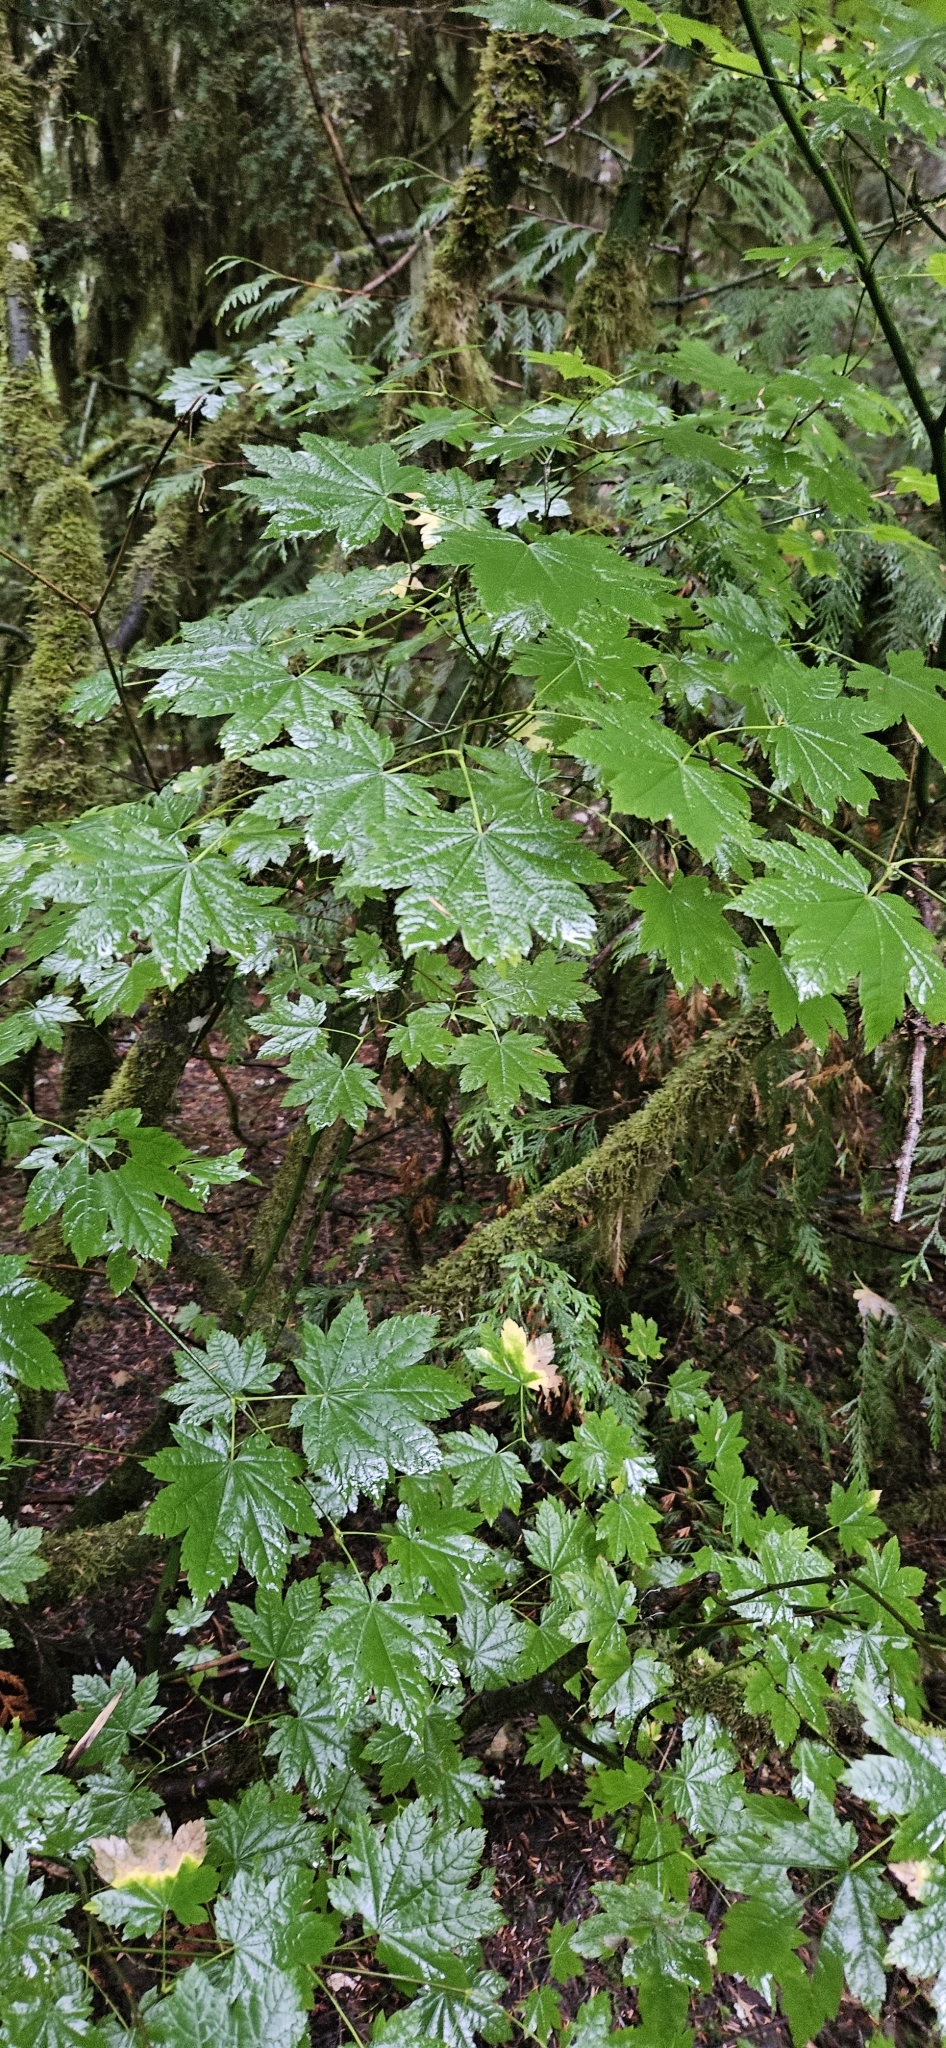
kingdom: Plantae
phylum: Tracheophyta
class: Magnoliopsida
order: Sapindales
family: Sapindaceae
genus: Acer
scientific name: Acer circinatum
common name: Vine maple
